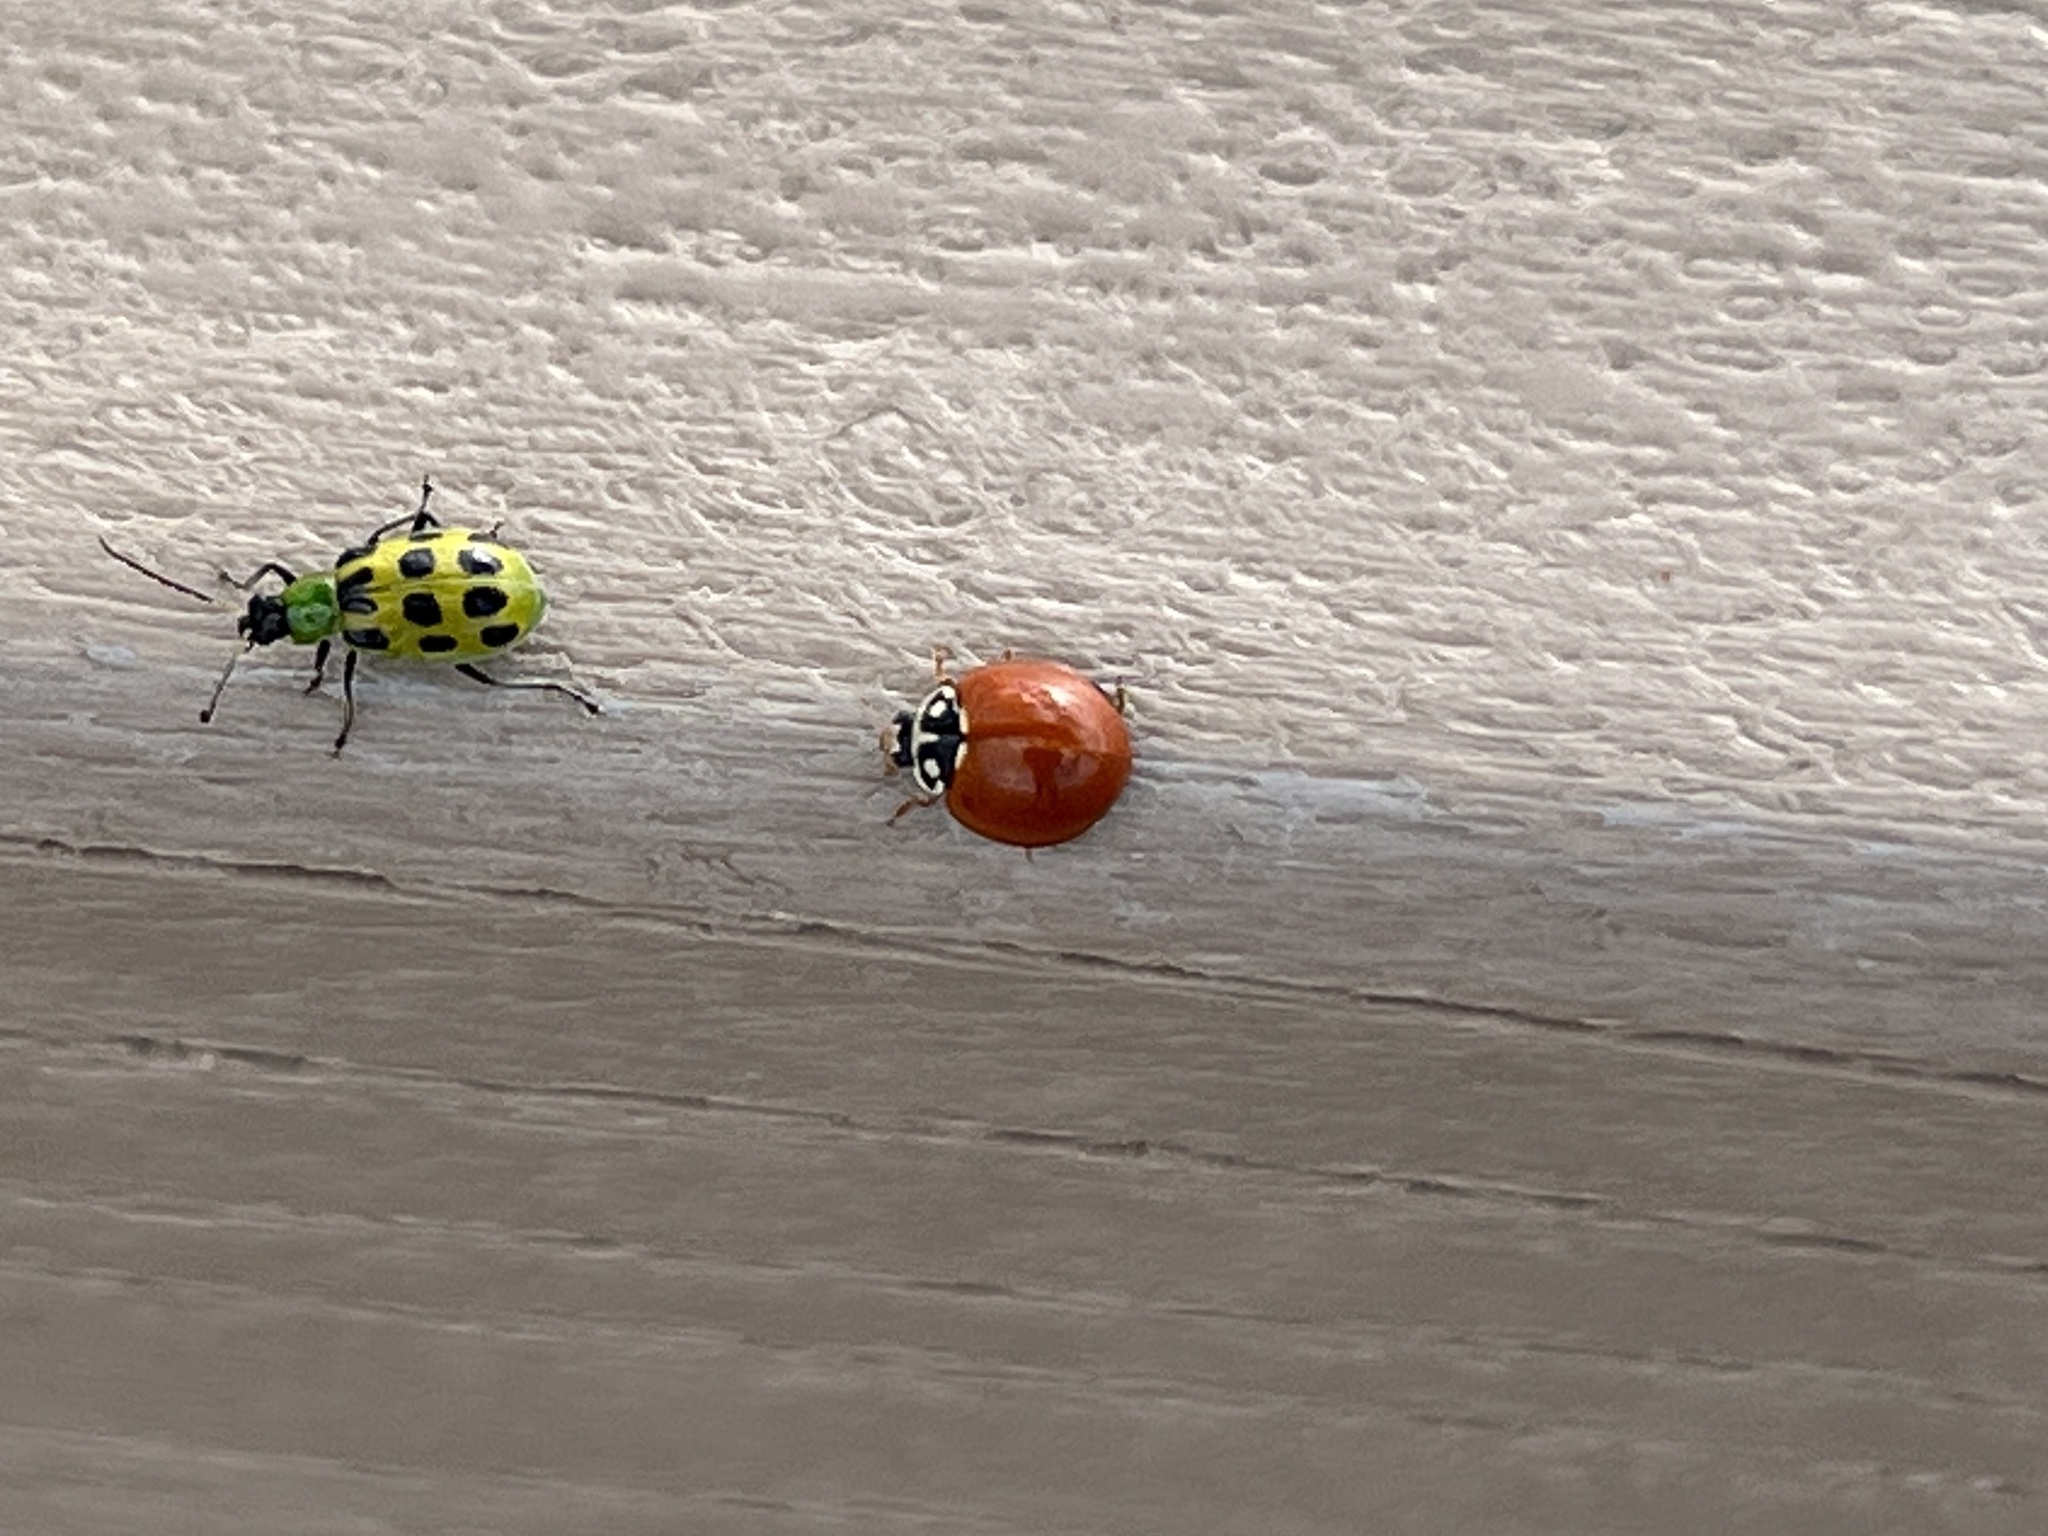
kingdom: Animalia
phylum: Arthropoda
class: Insecta
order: Coleoptera
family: Coccinellidae
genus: Cycloneda
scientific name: Cycloneda sanguinea
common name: Ladybird beetle
